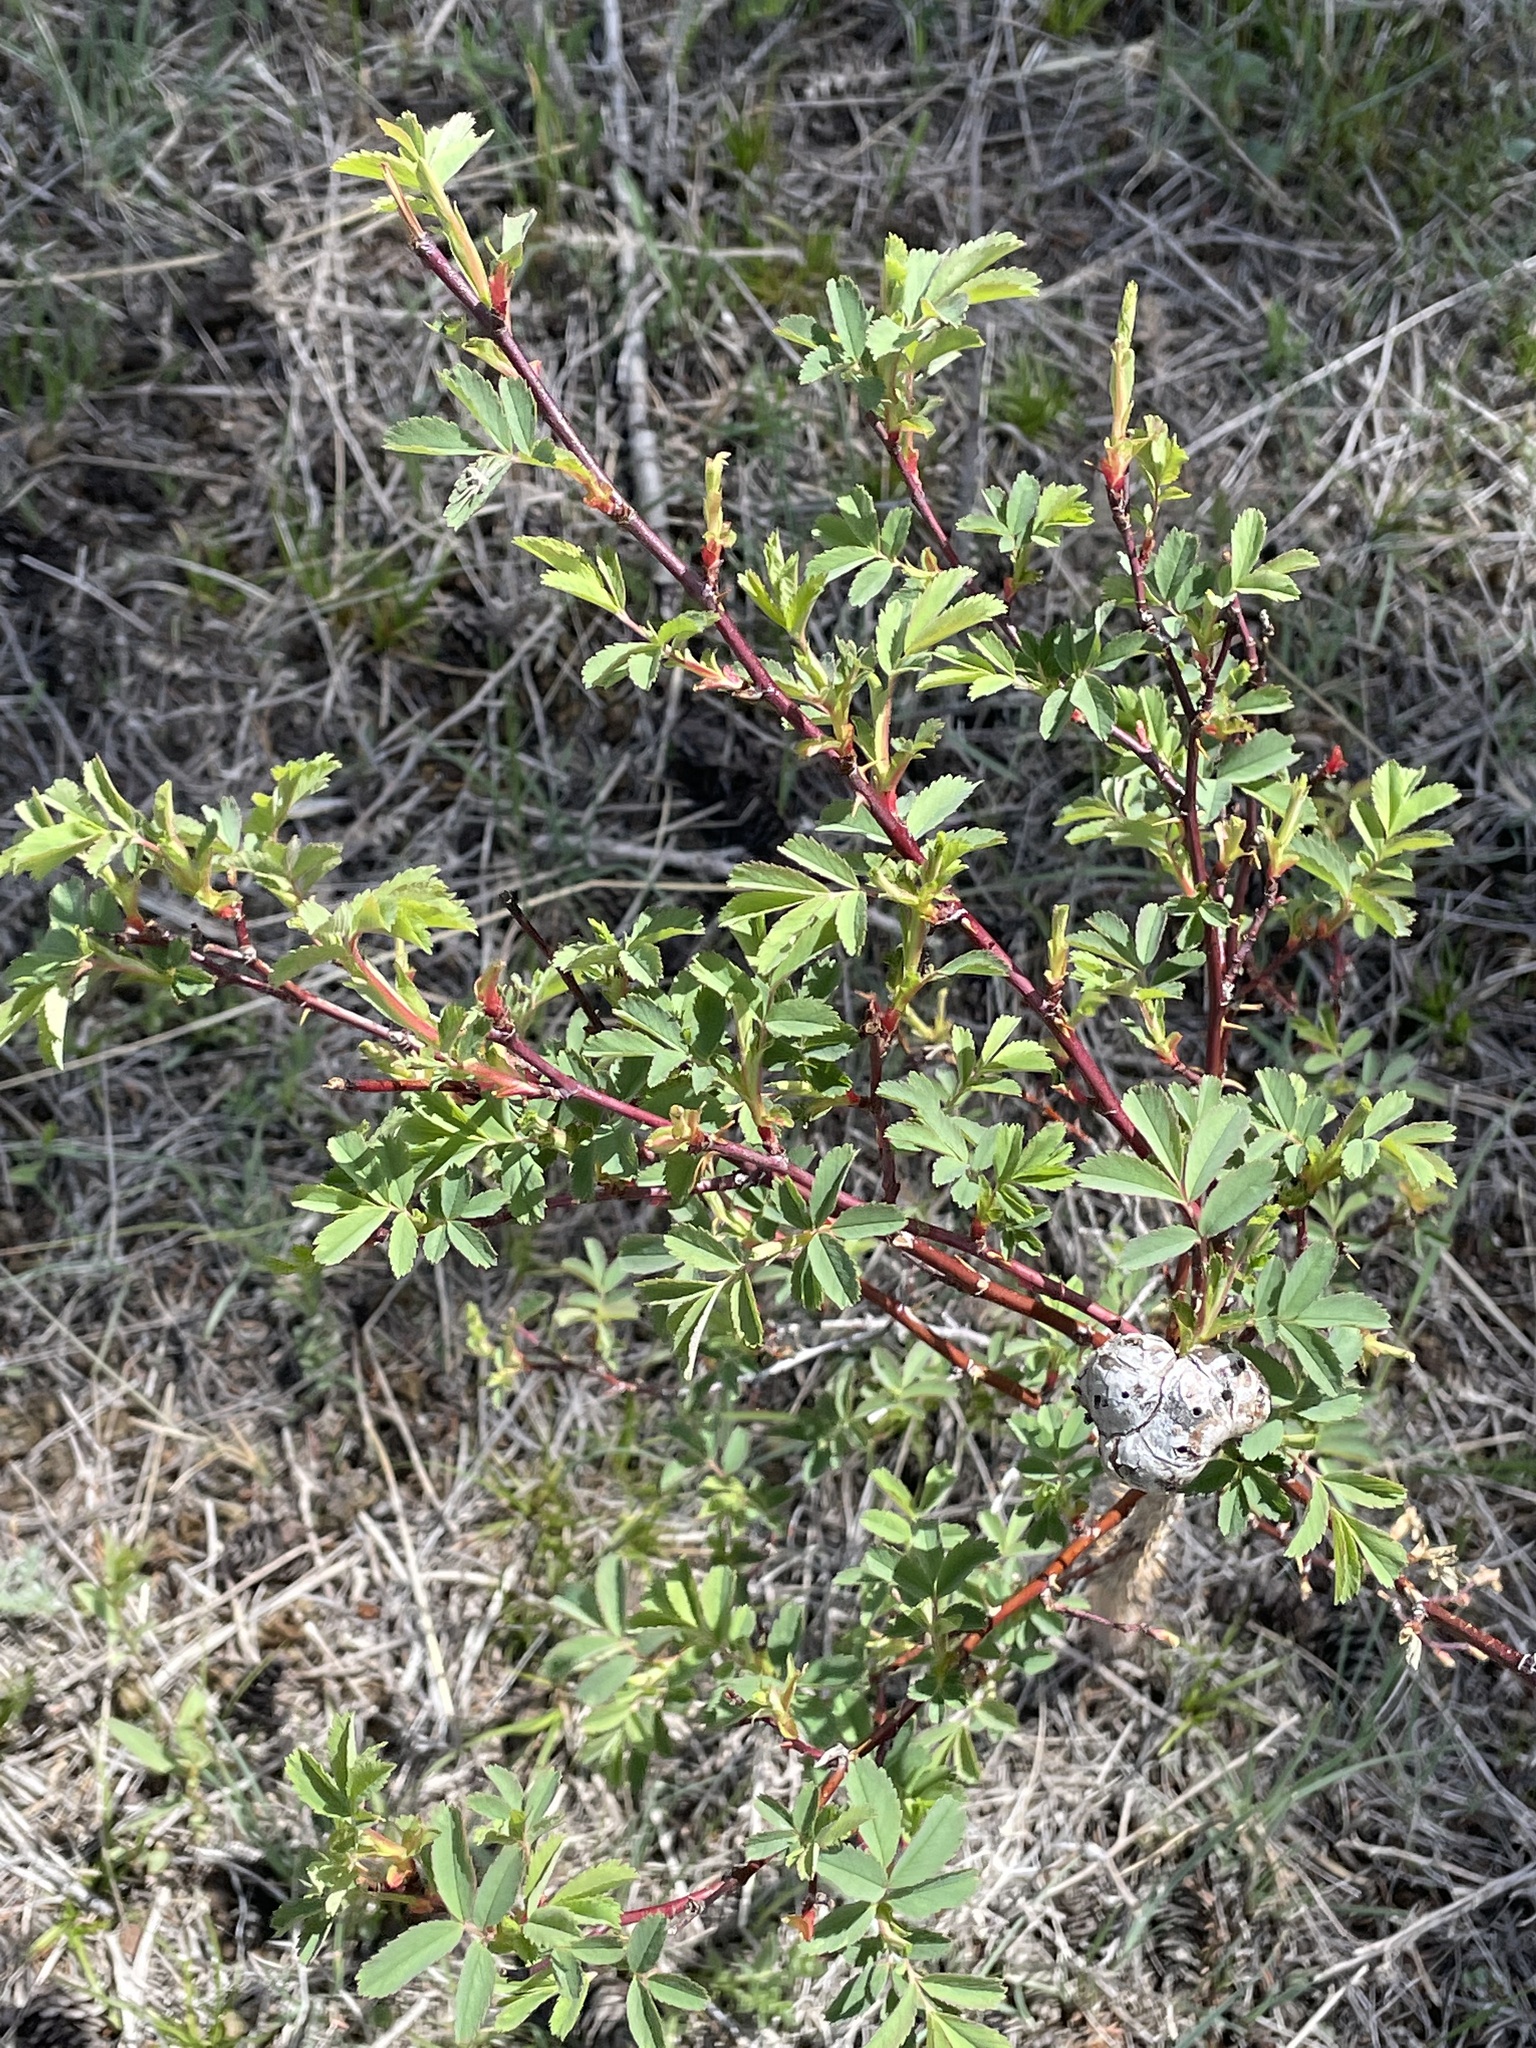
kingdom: Animalia
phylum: Arthropoda
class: Insecta
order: Hymenoptera
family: Cynipidae
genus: Diplolepis
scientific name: Diplolepis spinosa
